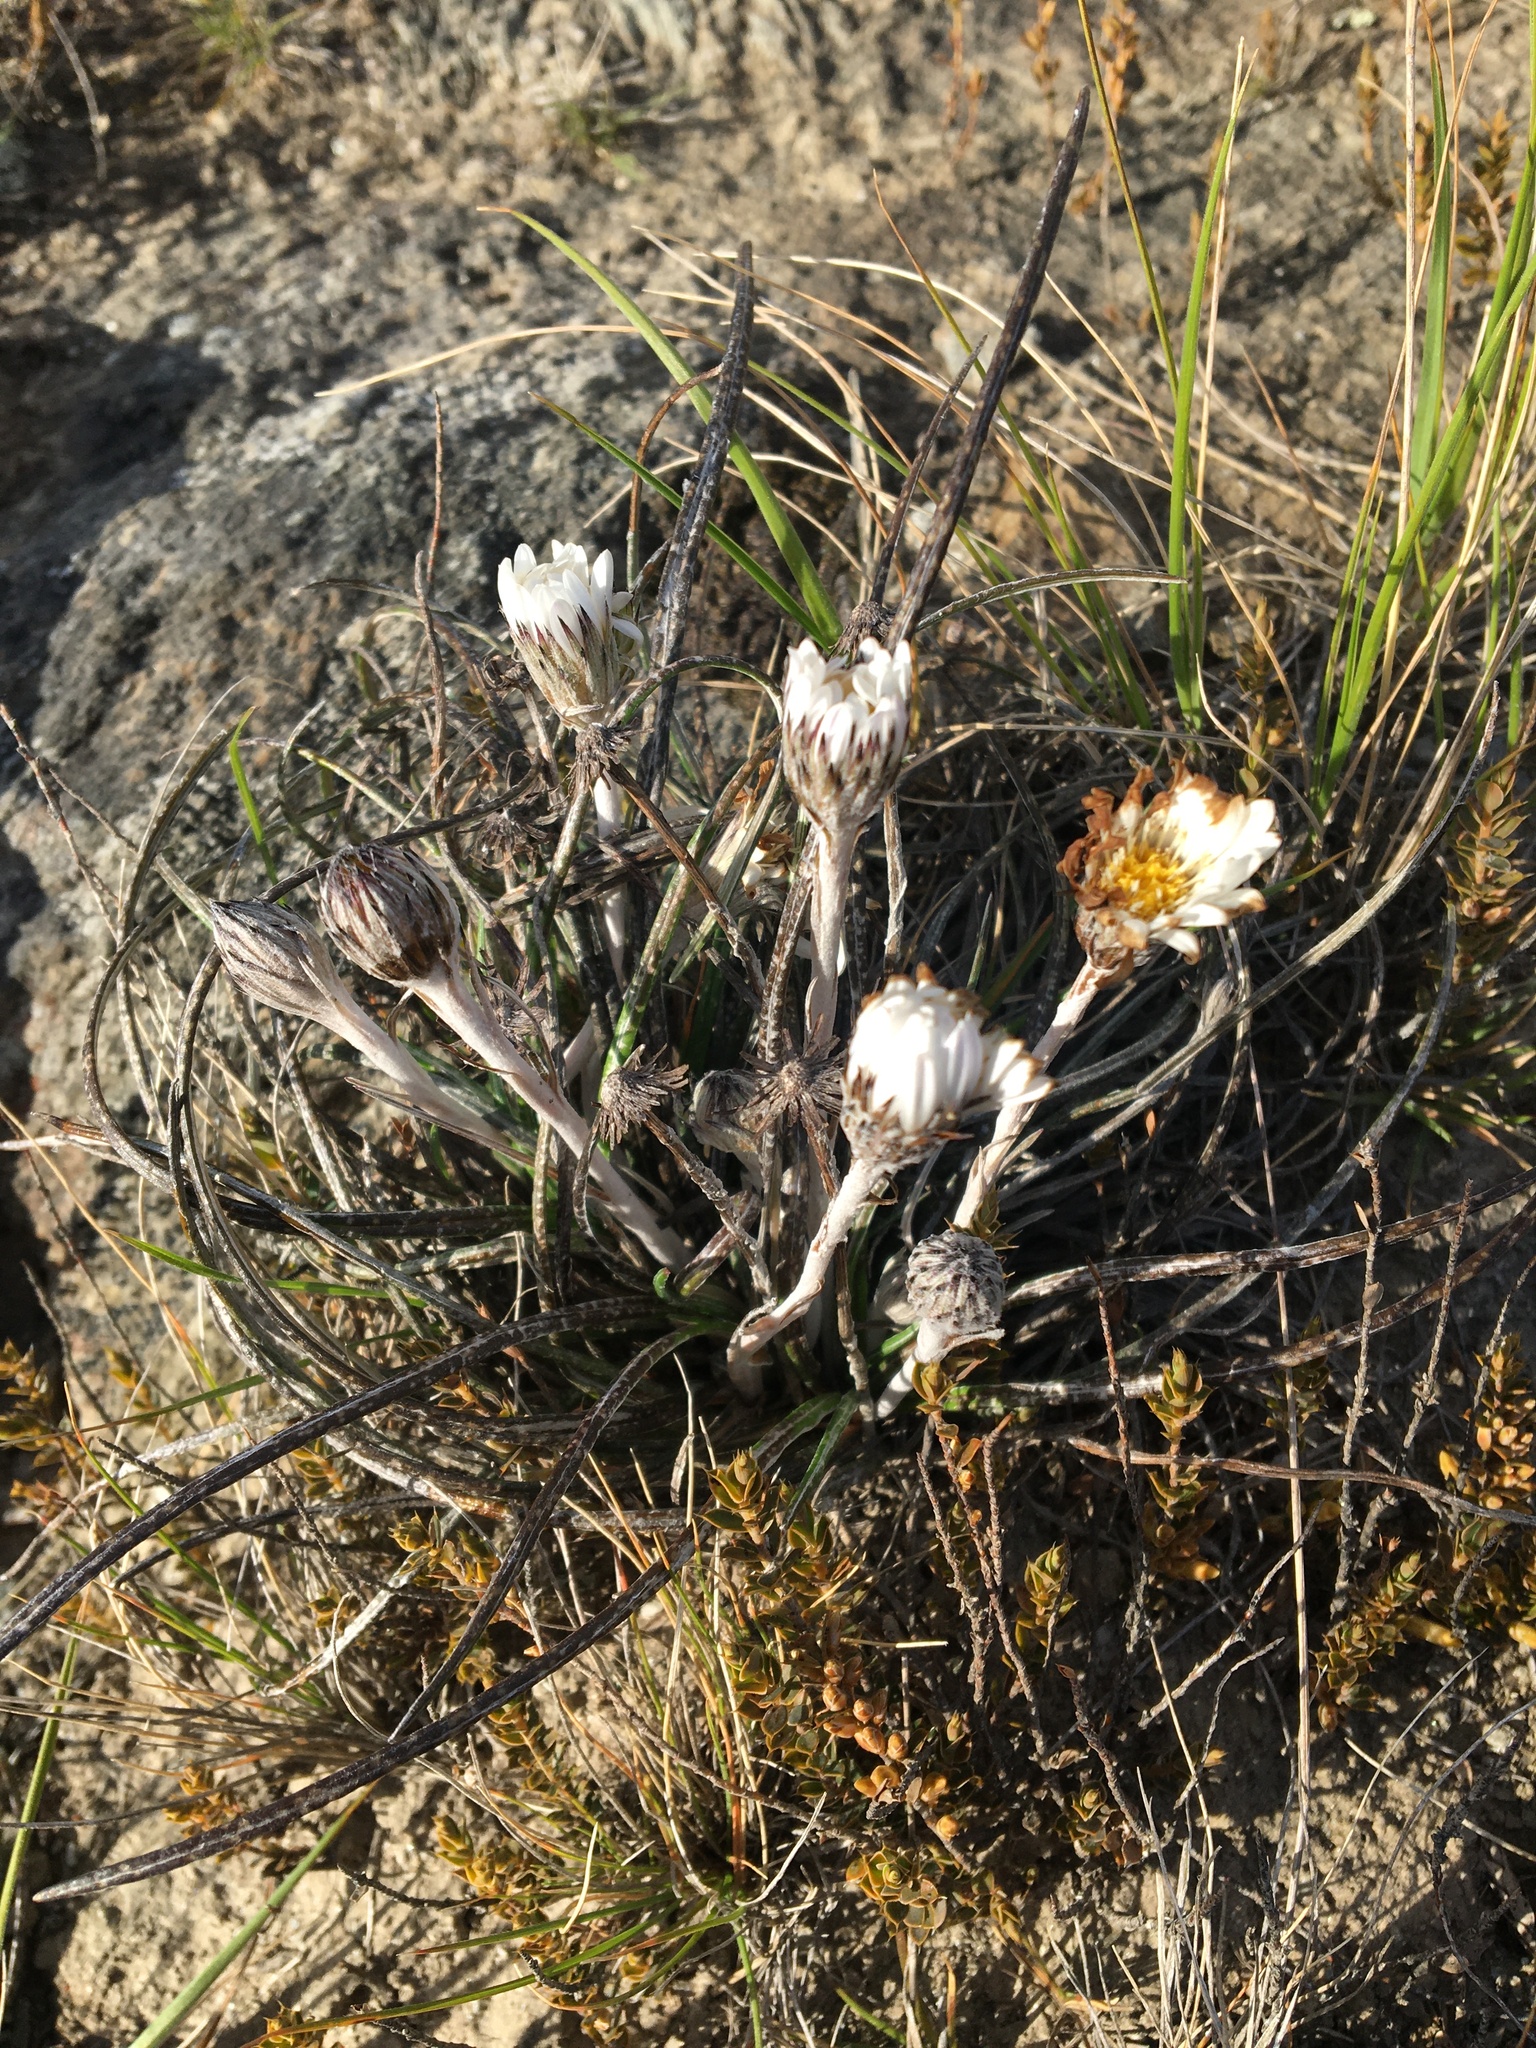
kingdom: Plantae
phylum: Tracheophyta
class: Magnoliopsida
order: Asterales
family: Asteraceae
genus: Celmisia
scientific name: Celmisia gracilenta
